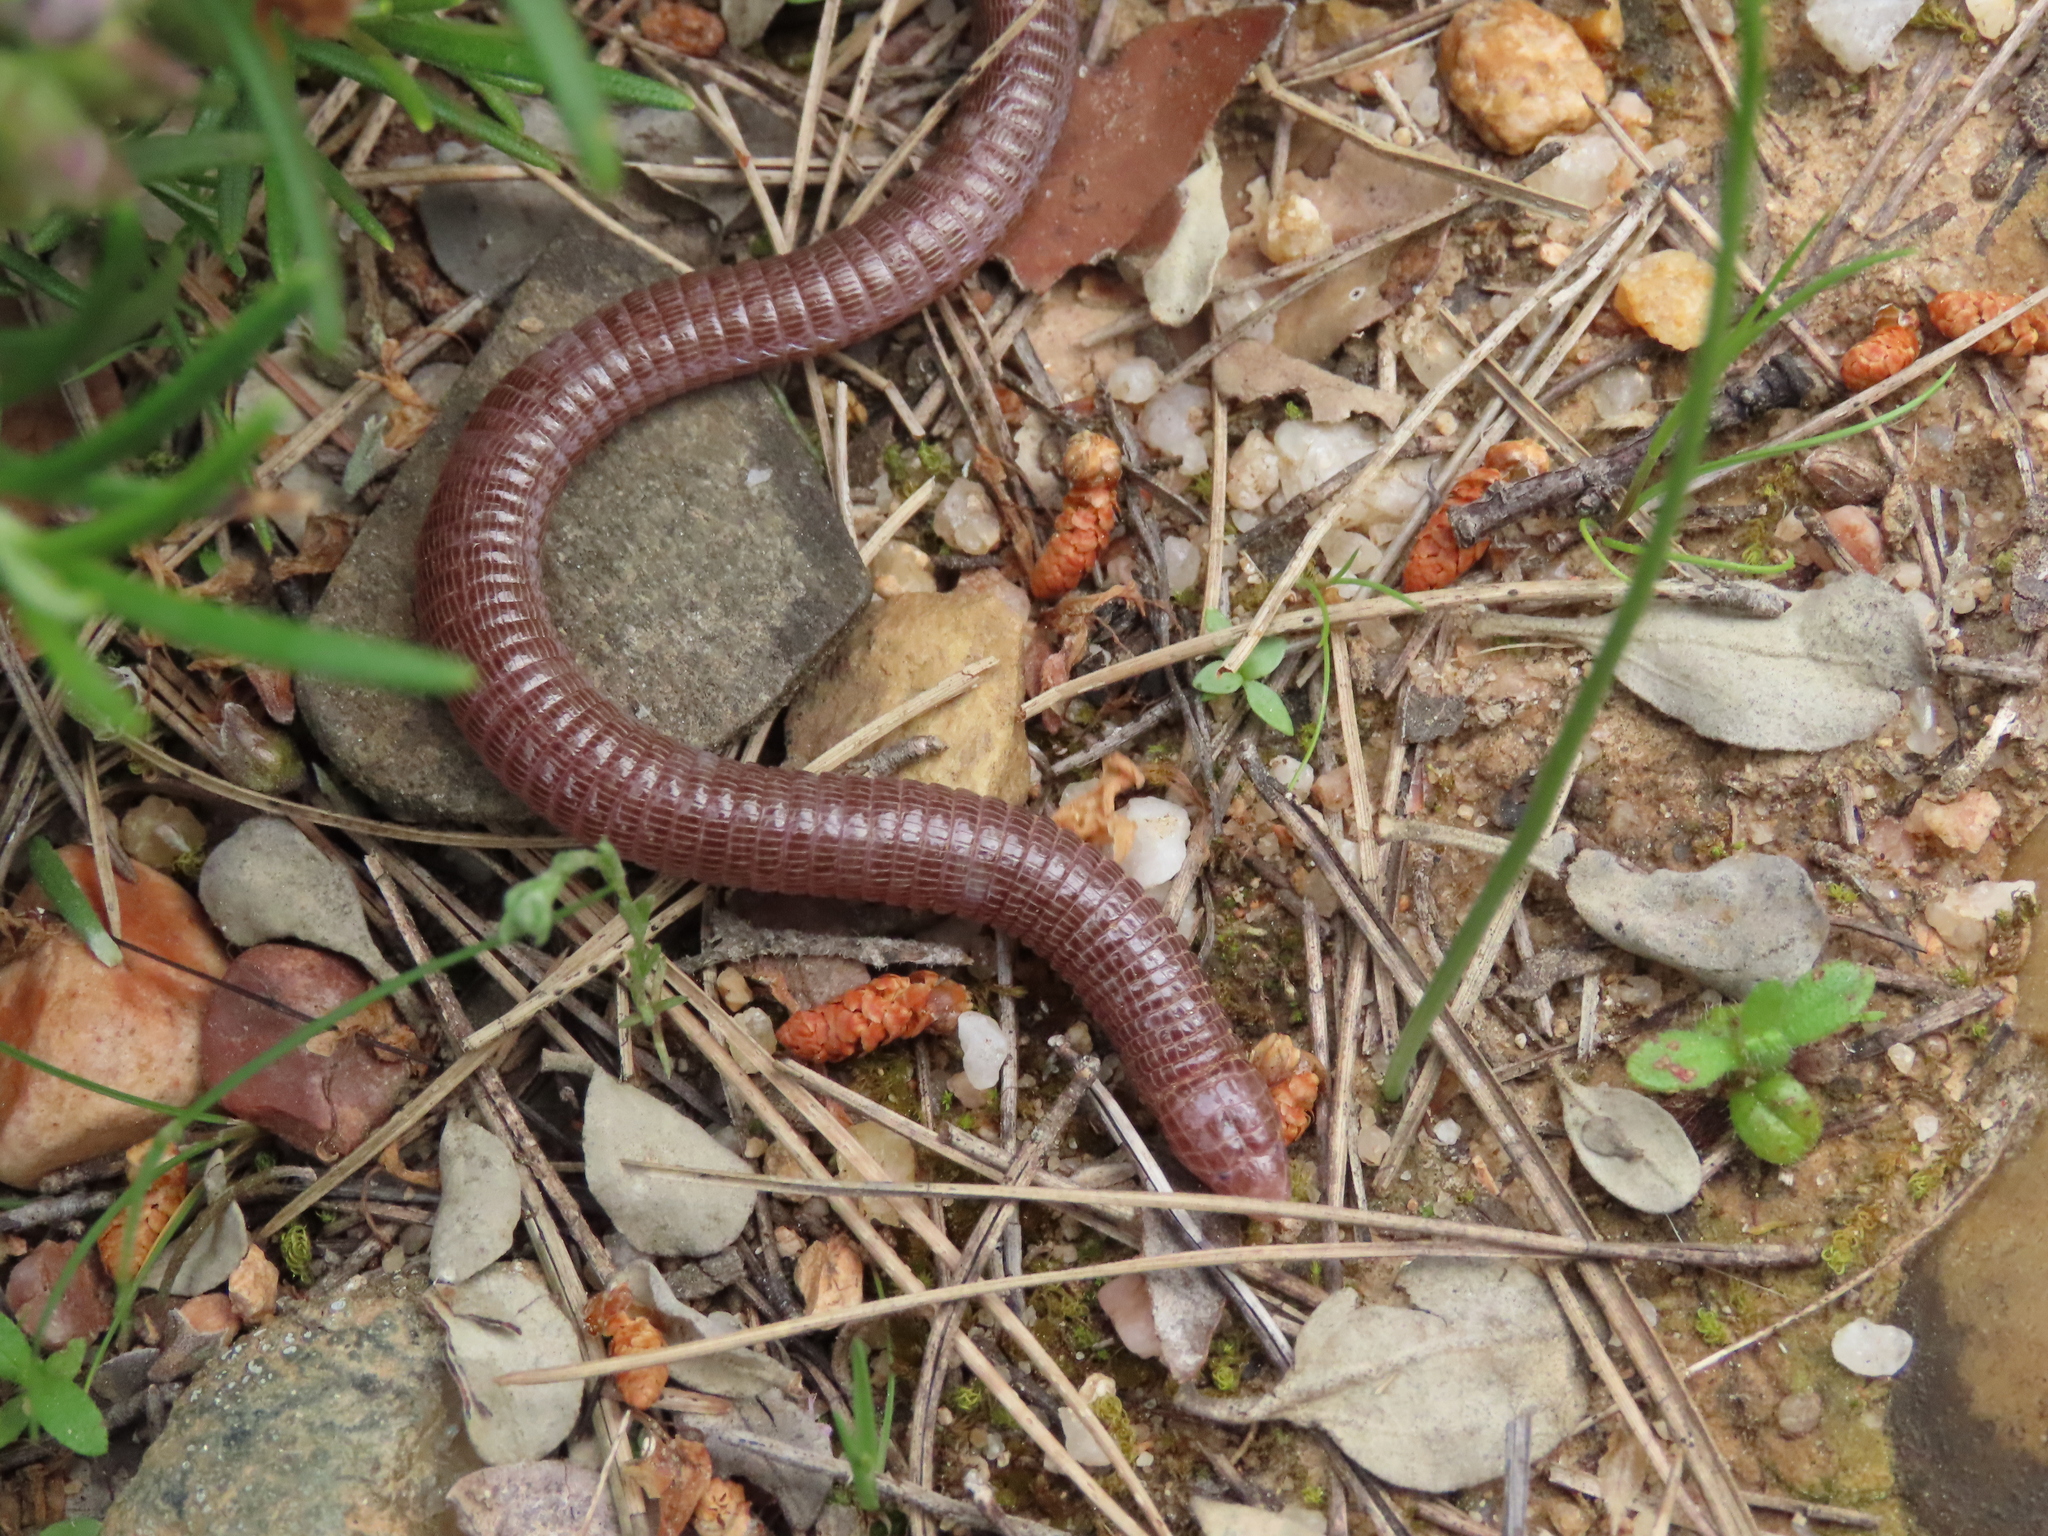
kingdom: Animalia
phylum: Chordata
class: Squamata
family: Blanidae
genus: Blanus
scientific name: Blanus vandellii
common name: Vandelli's worm lizard
